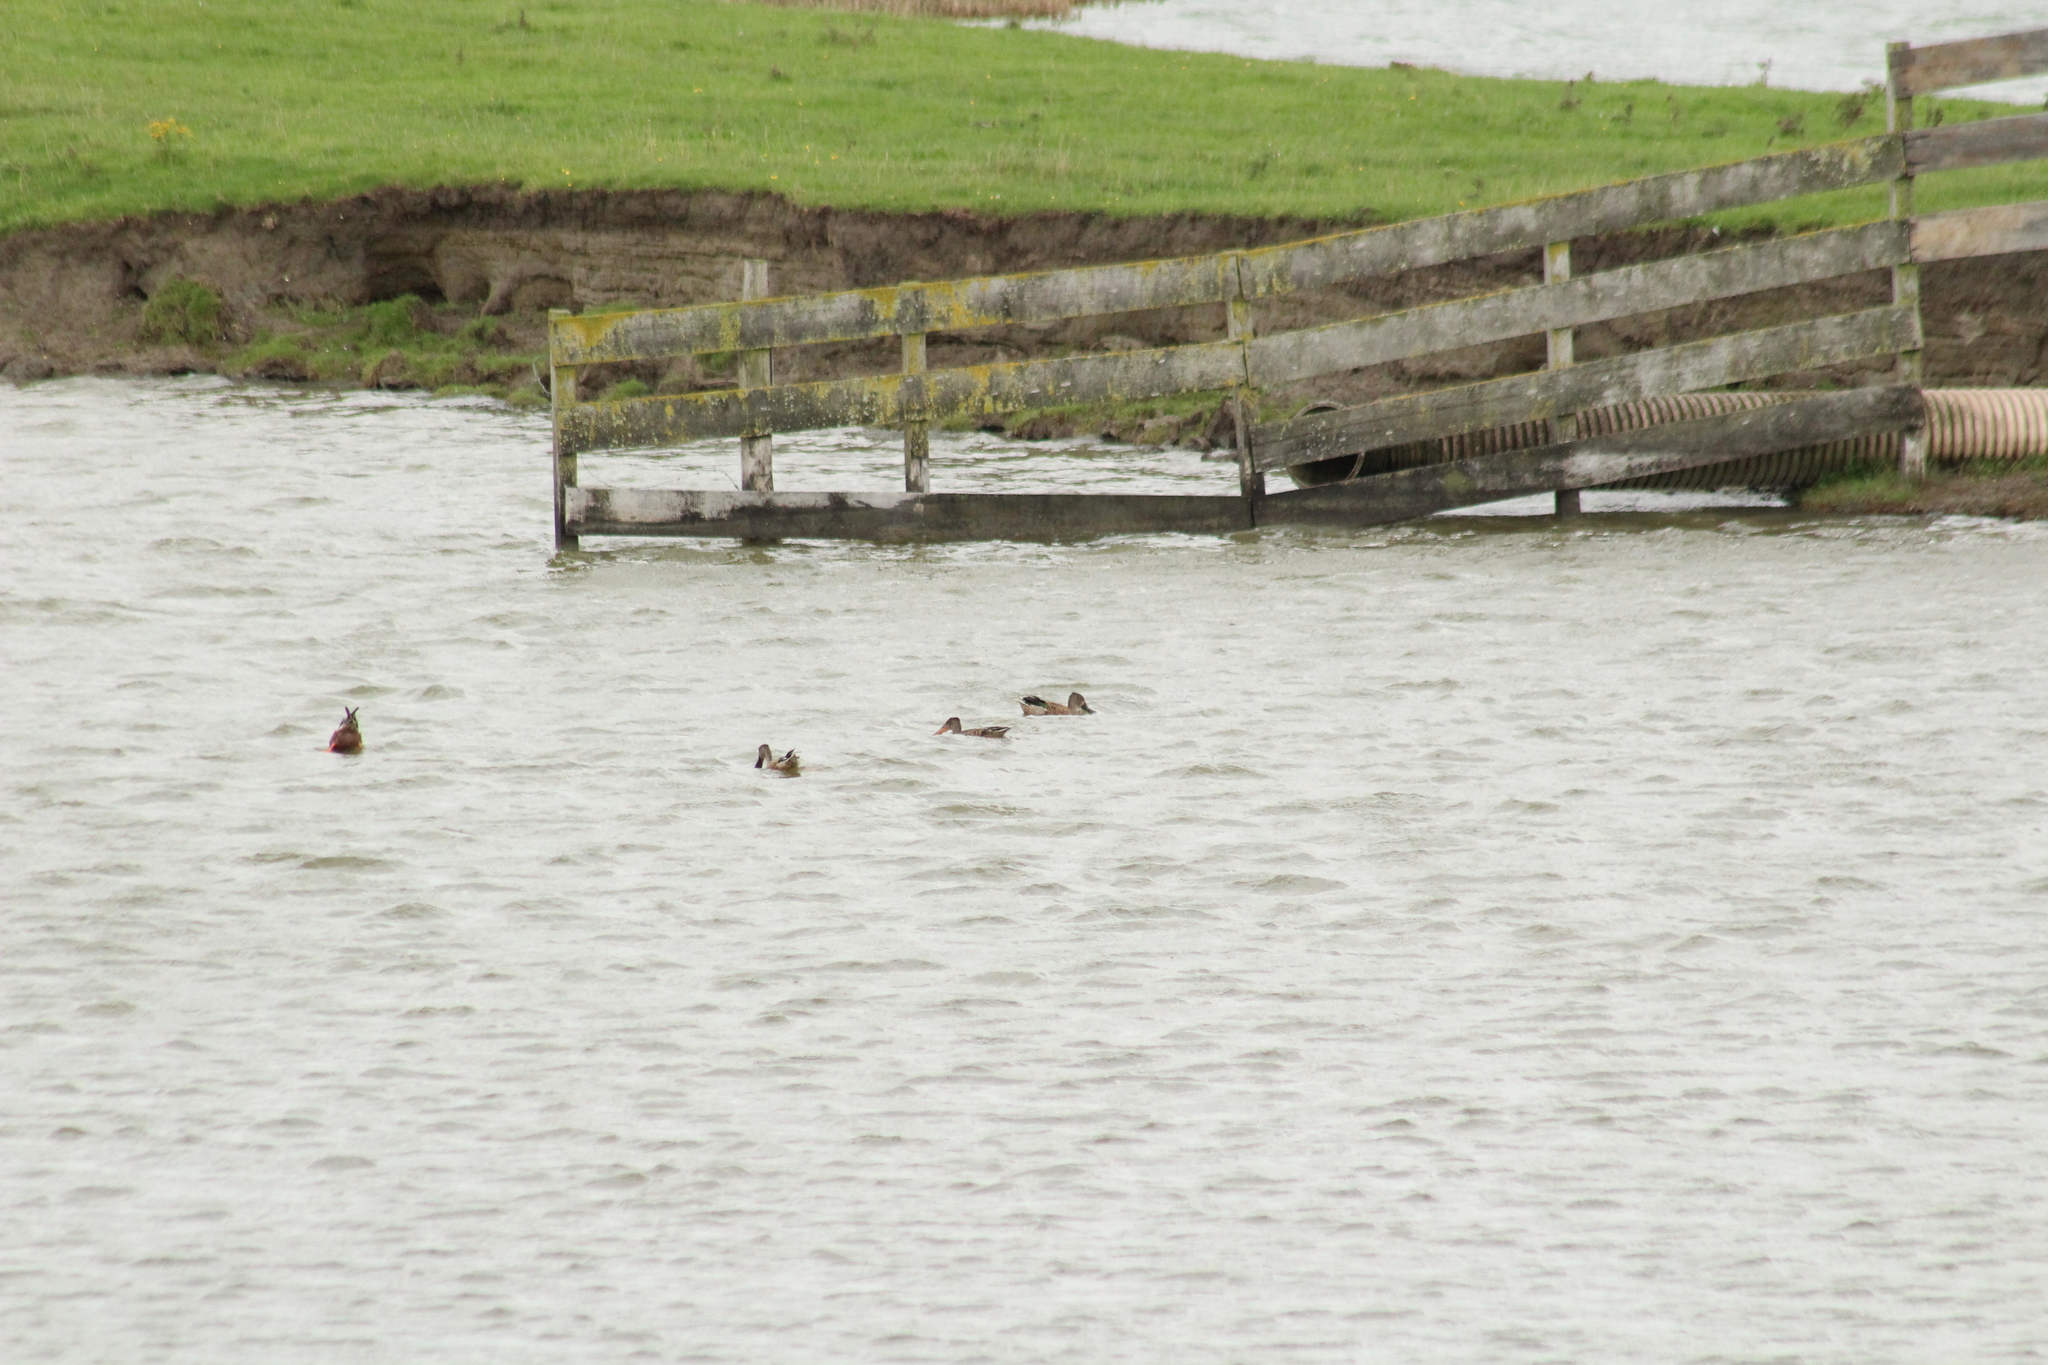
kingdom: Animalia
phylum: Chordata
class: Aves
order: Anseriformes
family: Anatidae
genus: Spatula
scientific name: Spatula clypeata
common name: Northern shoveler
